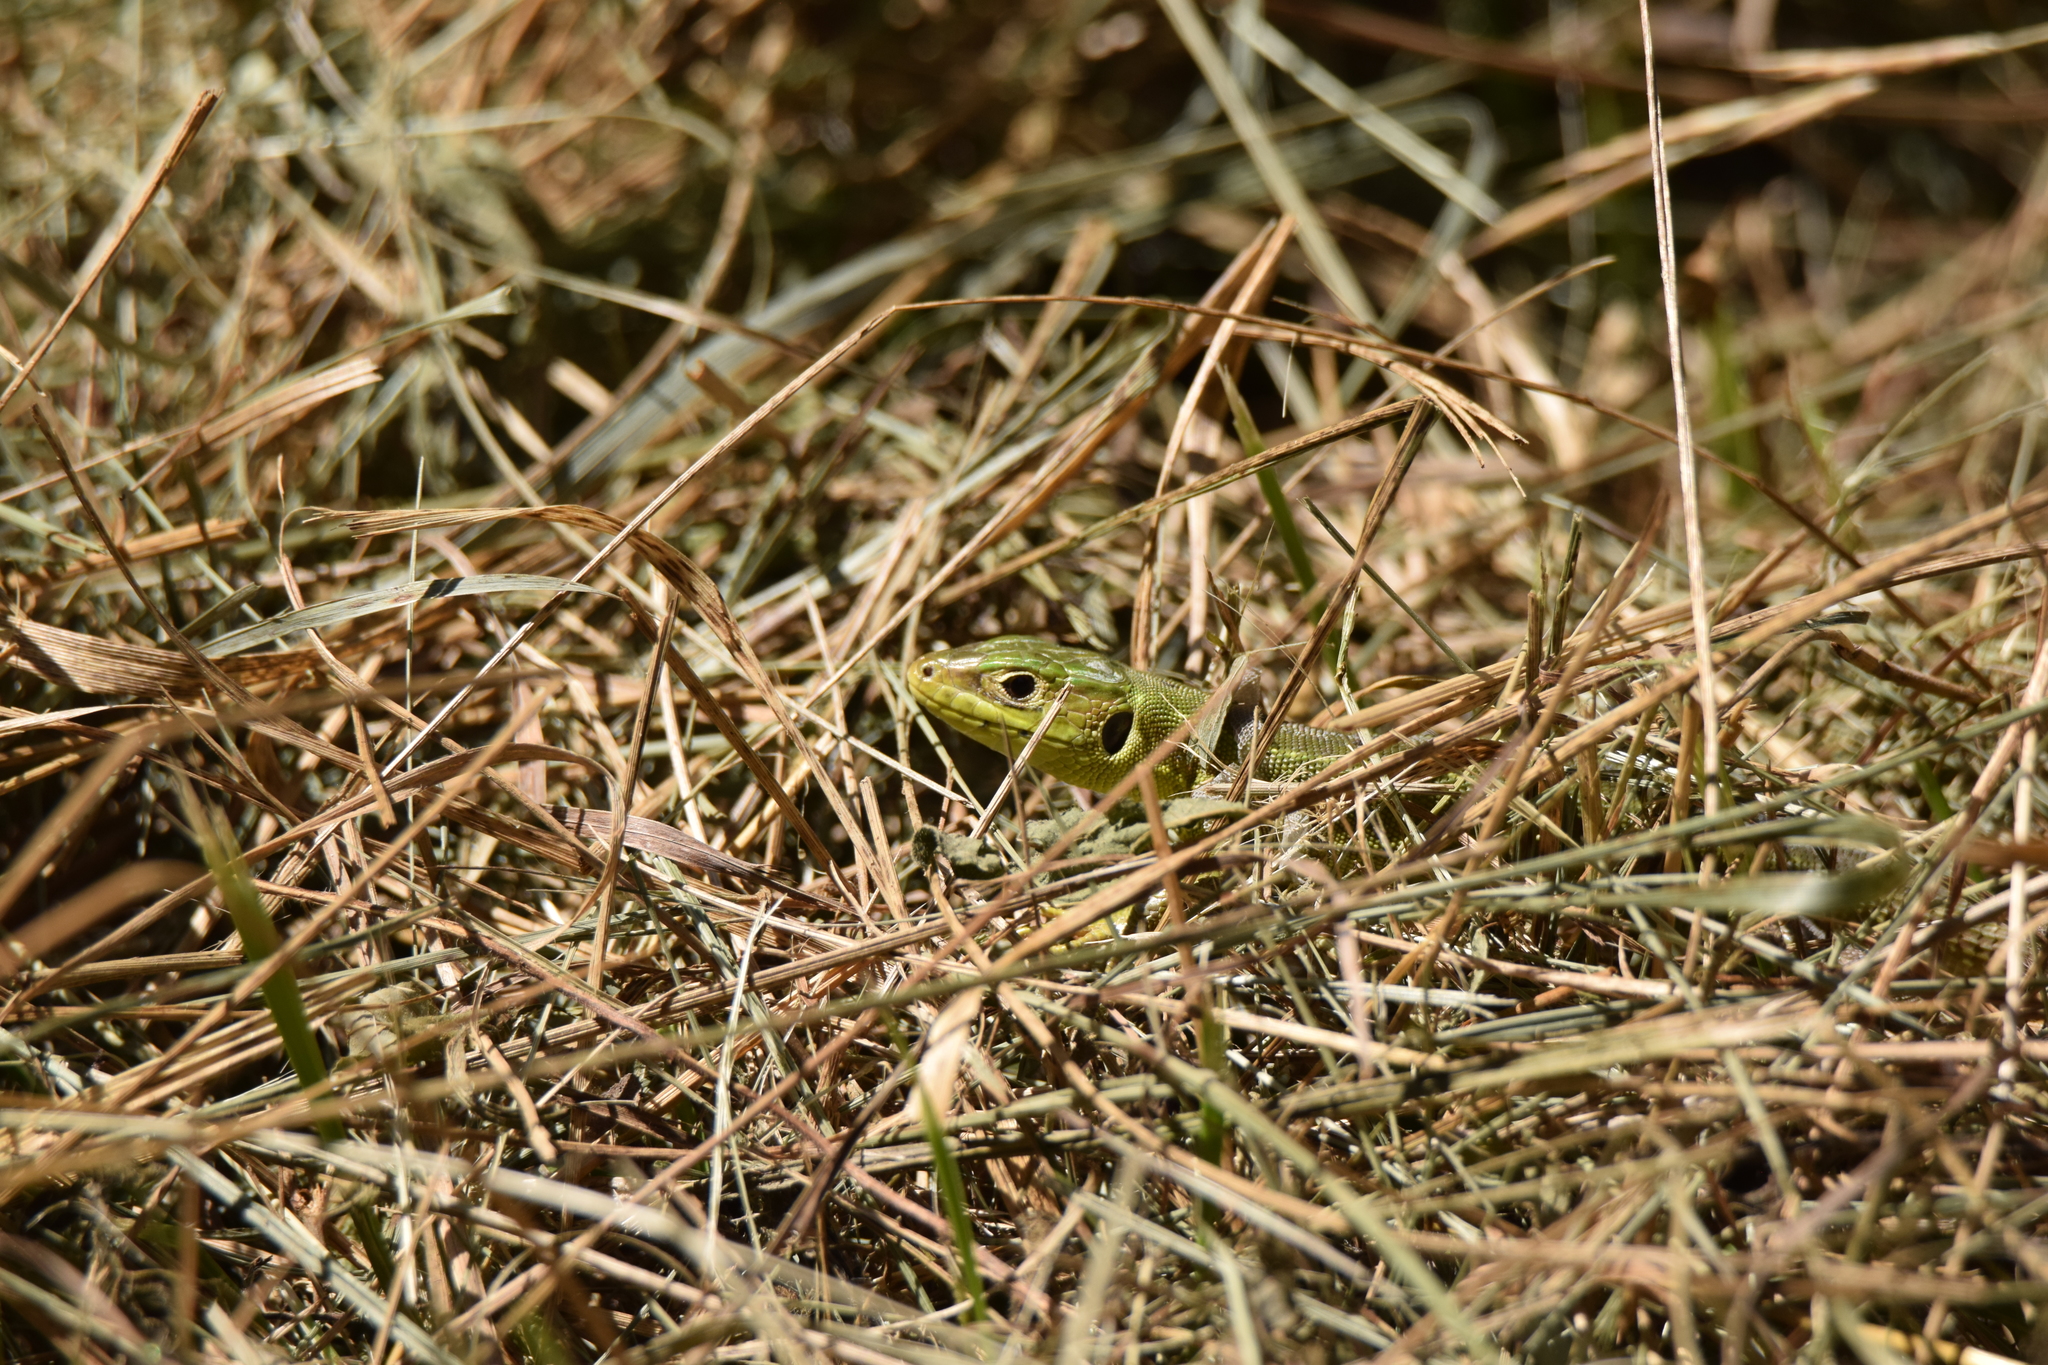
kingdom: Animalia
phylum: Chordata
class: Squamata
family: Lacertidae
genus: Lacerta
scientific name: Lacerta bilineata
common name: Western green lizard
